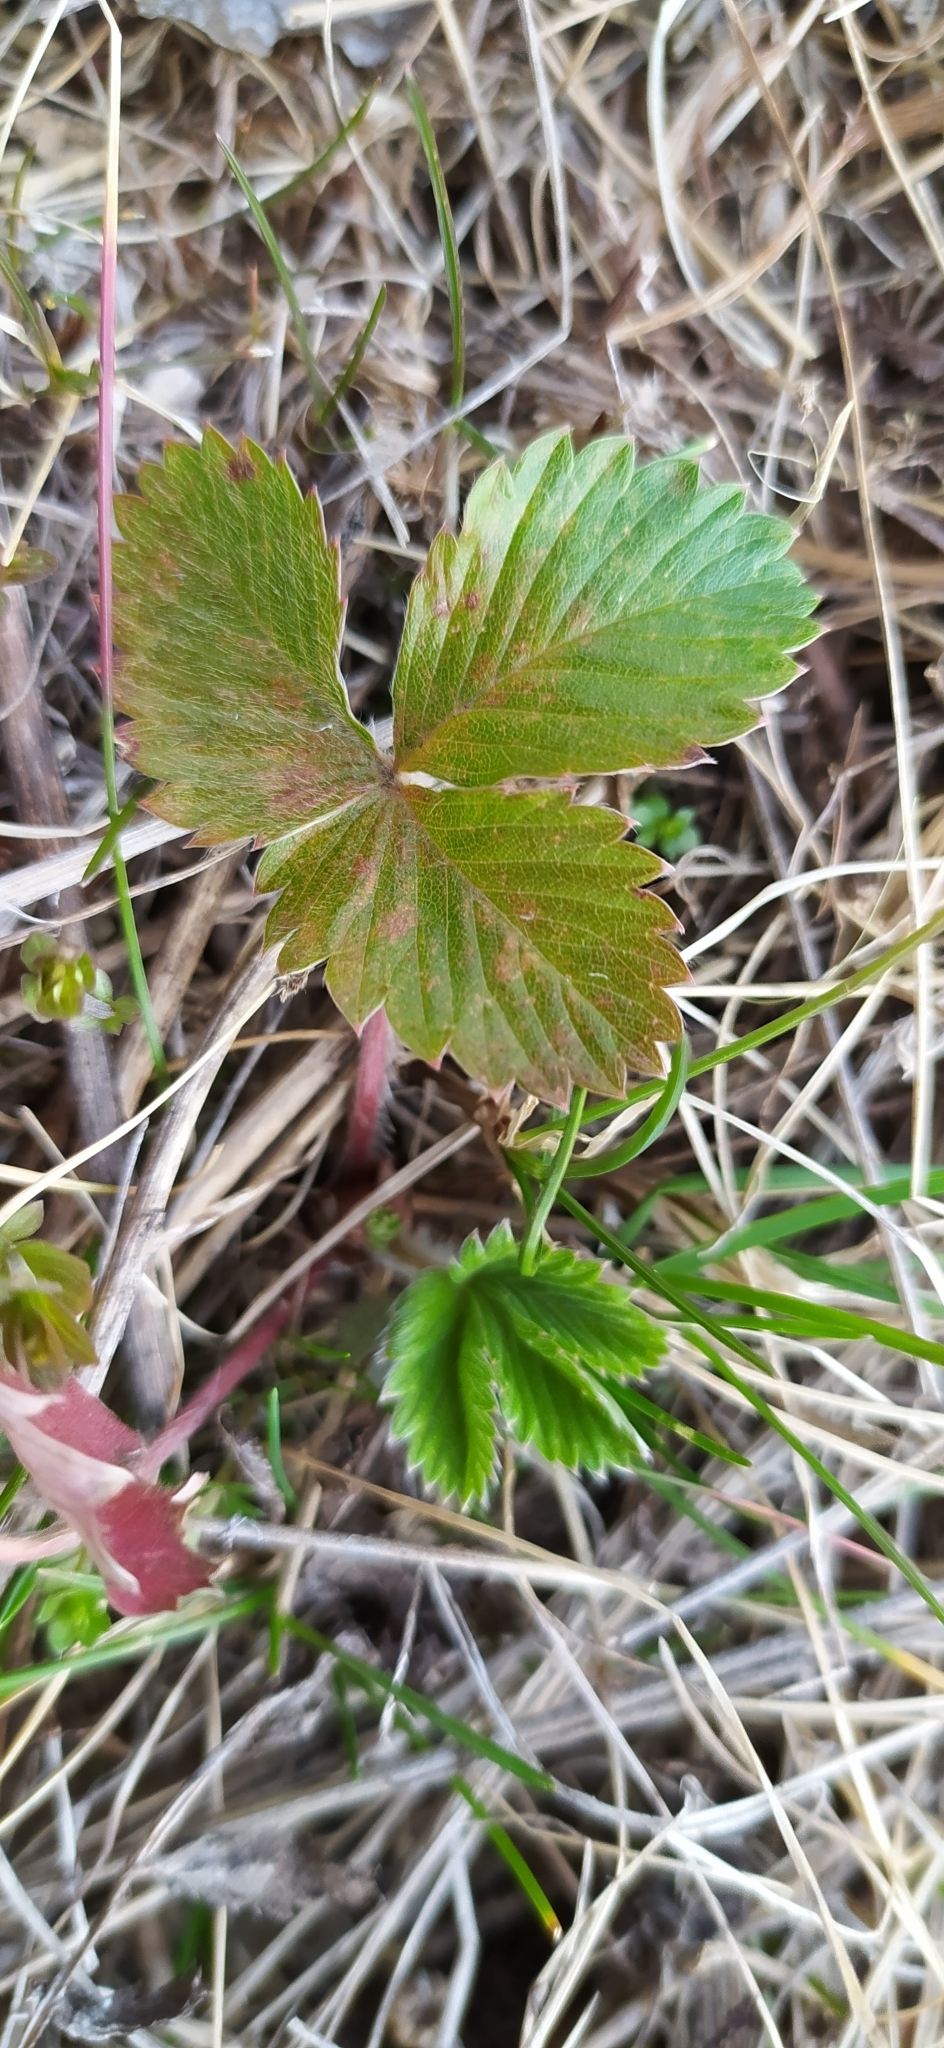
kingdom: Plantae
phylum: Tracheophyta
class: Magnoliopsida
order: Rosales
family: Rosaceae
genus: Fragaria
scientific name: Fragaria vesca
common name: Wild strawberry
